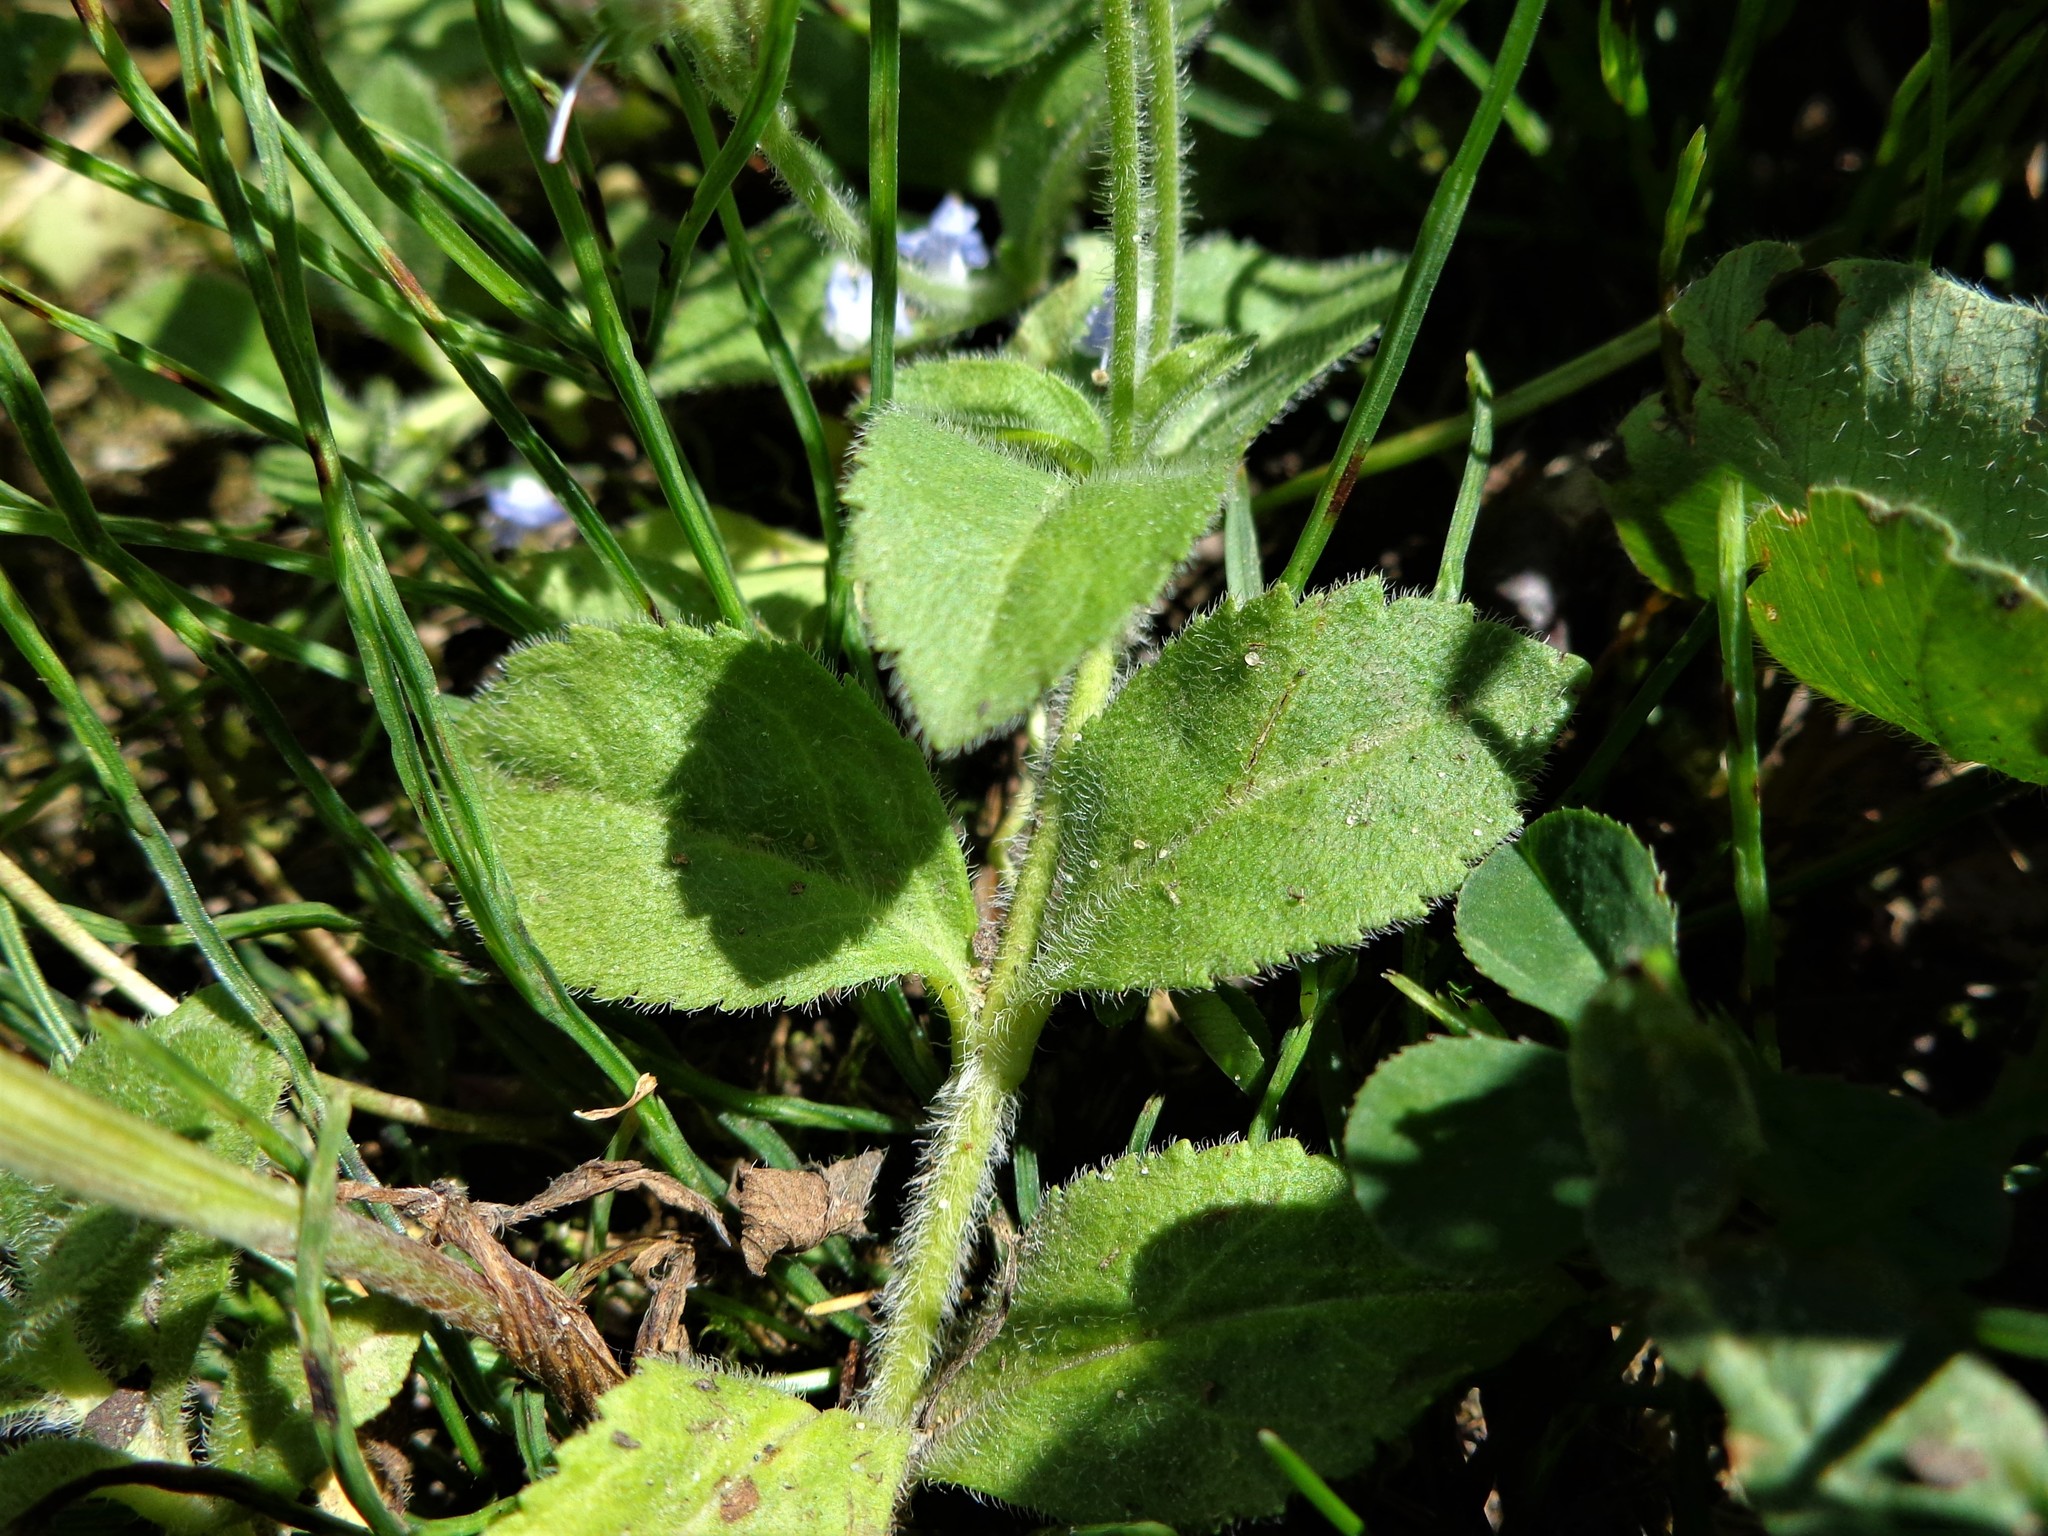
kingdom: Plantae
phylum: Tracheophyta
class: Magnoliopsida
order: Lamiales
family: Plantaginaceae
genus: Veronica
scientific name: Veronica officinalis
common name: Common speedwell
